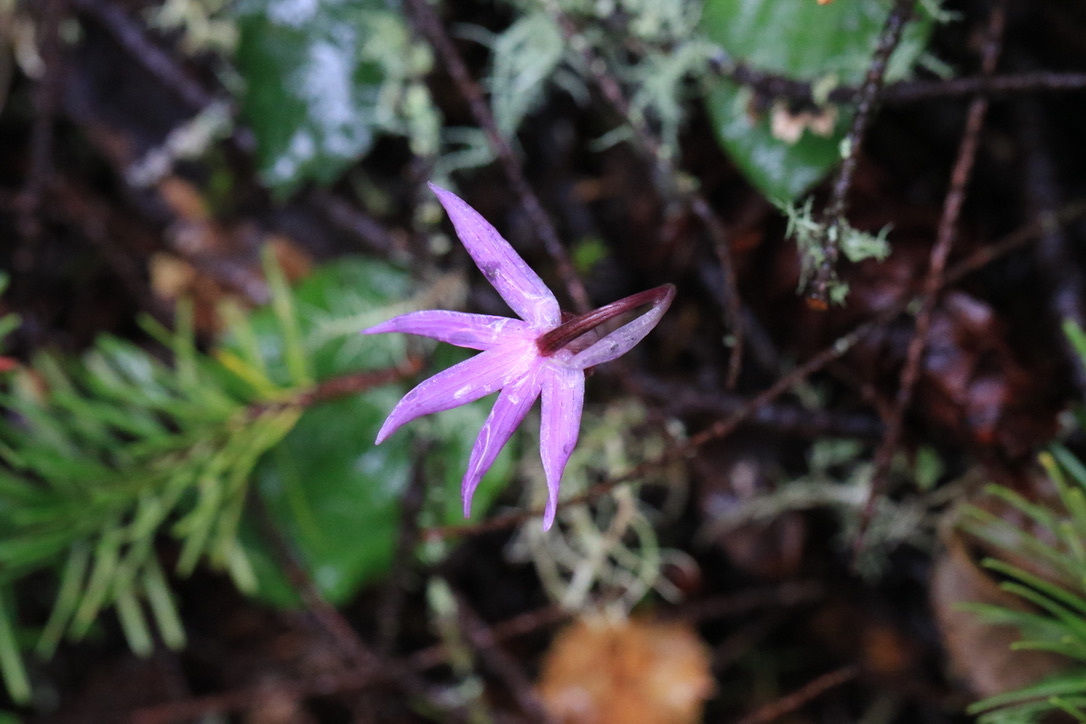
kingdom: Plantae
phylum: Tracheophyta
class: Liliopsida
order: Asparagales
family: Orchidaceae
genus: Calypso
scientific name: Calypso bulbosa
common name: Calypso
